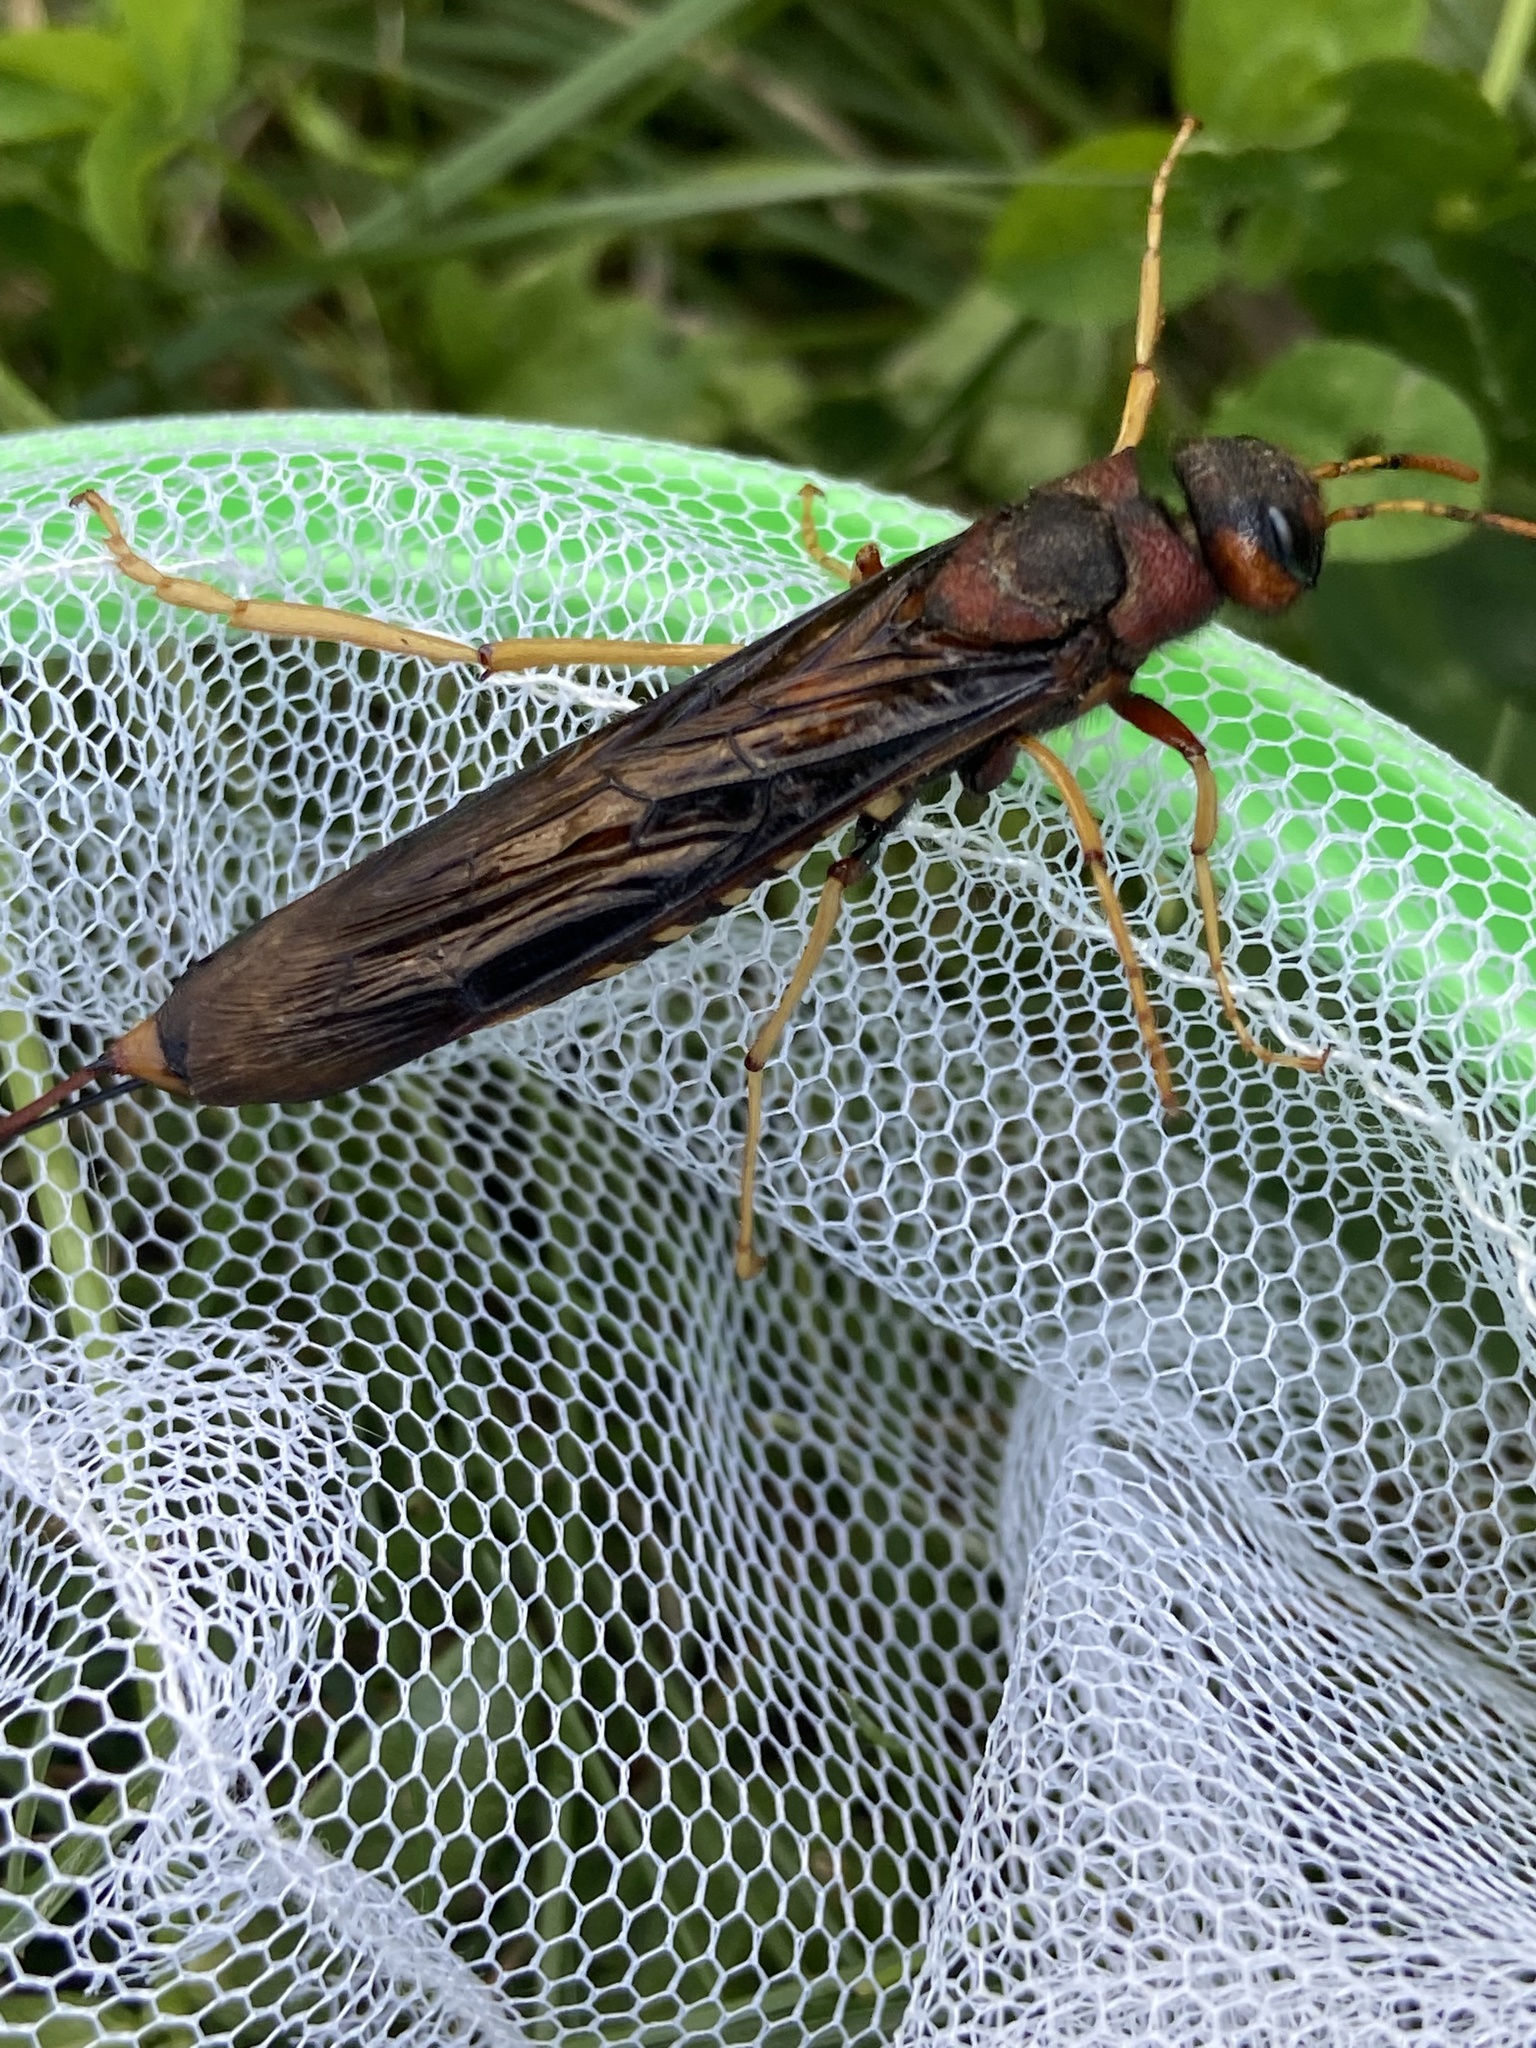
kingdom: Animalia
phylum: Arthropoda
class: Insecta
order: Hymenoptera
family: Siricidae
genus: Tremex
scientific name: Tremex columba
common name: Wasp
